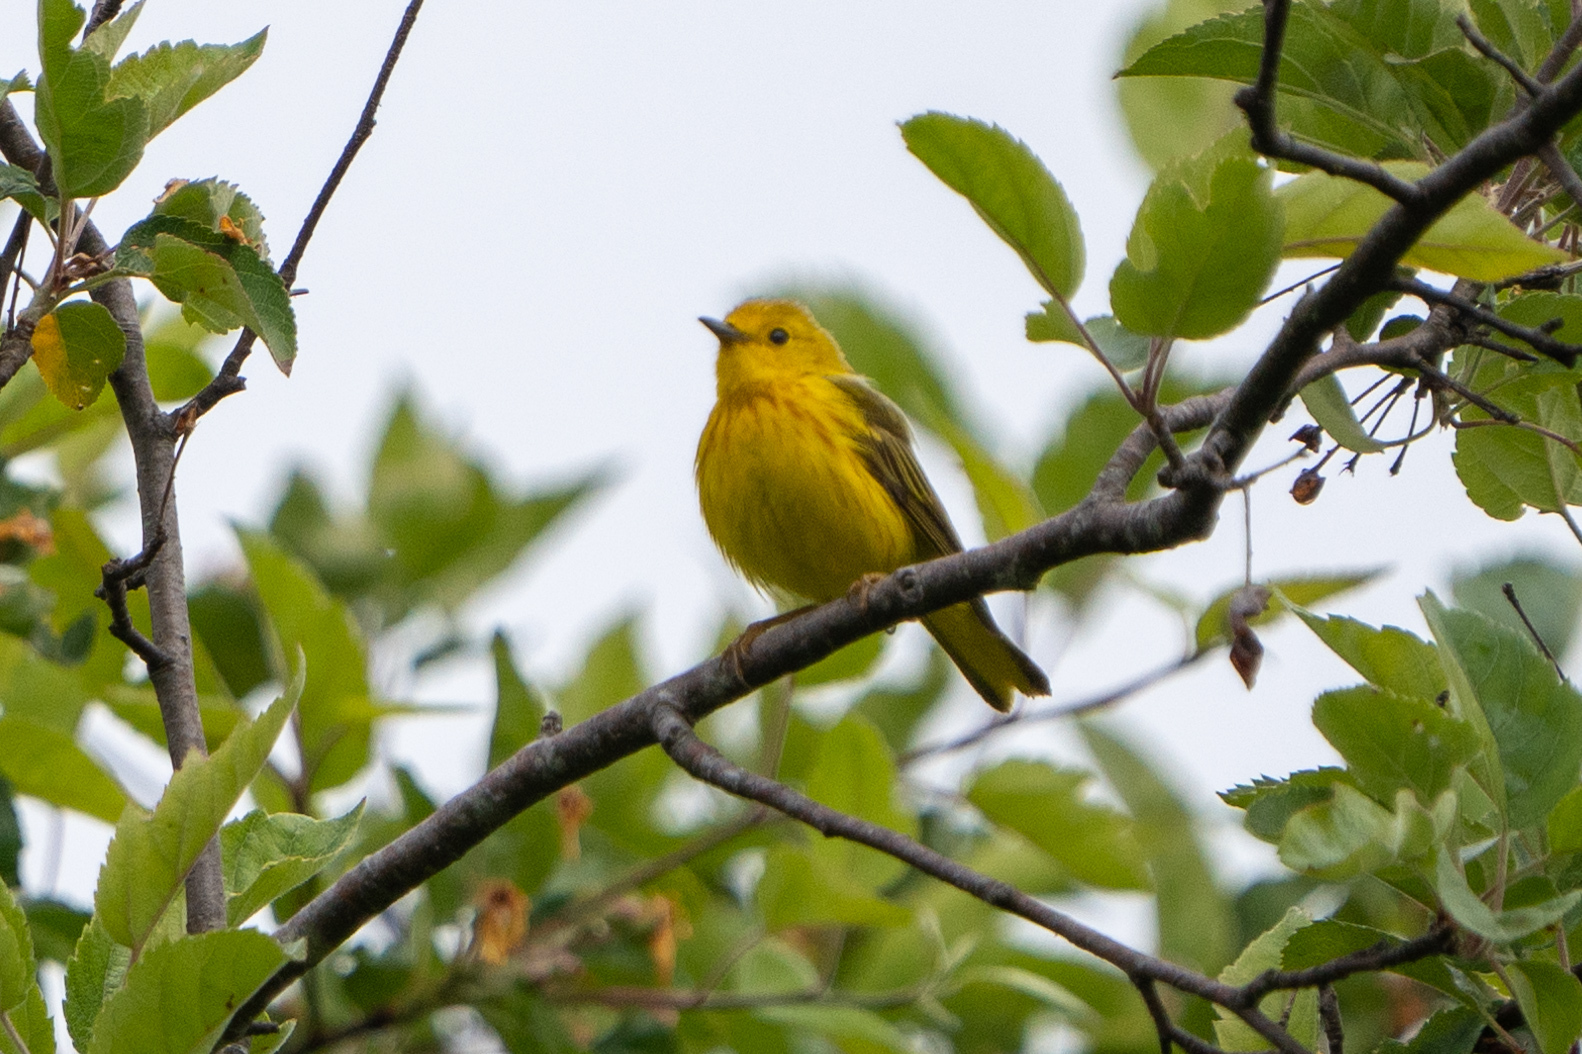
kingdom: Animalia
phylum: Chordata
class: Aves
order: Passeriformes
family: Parulidae
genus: Setophaga
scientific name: Setophaga petechia
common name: Yellow warbler
